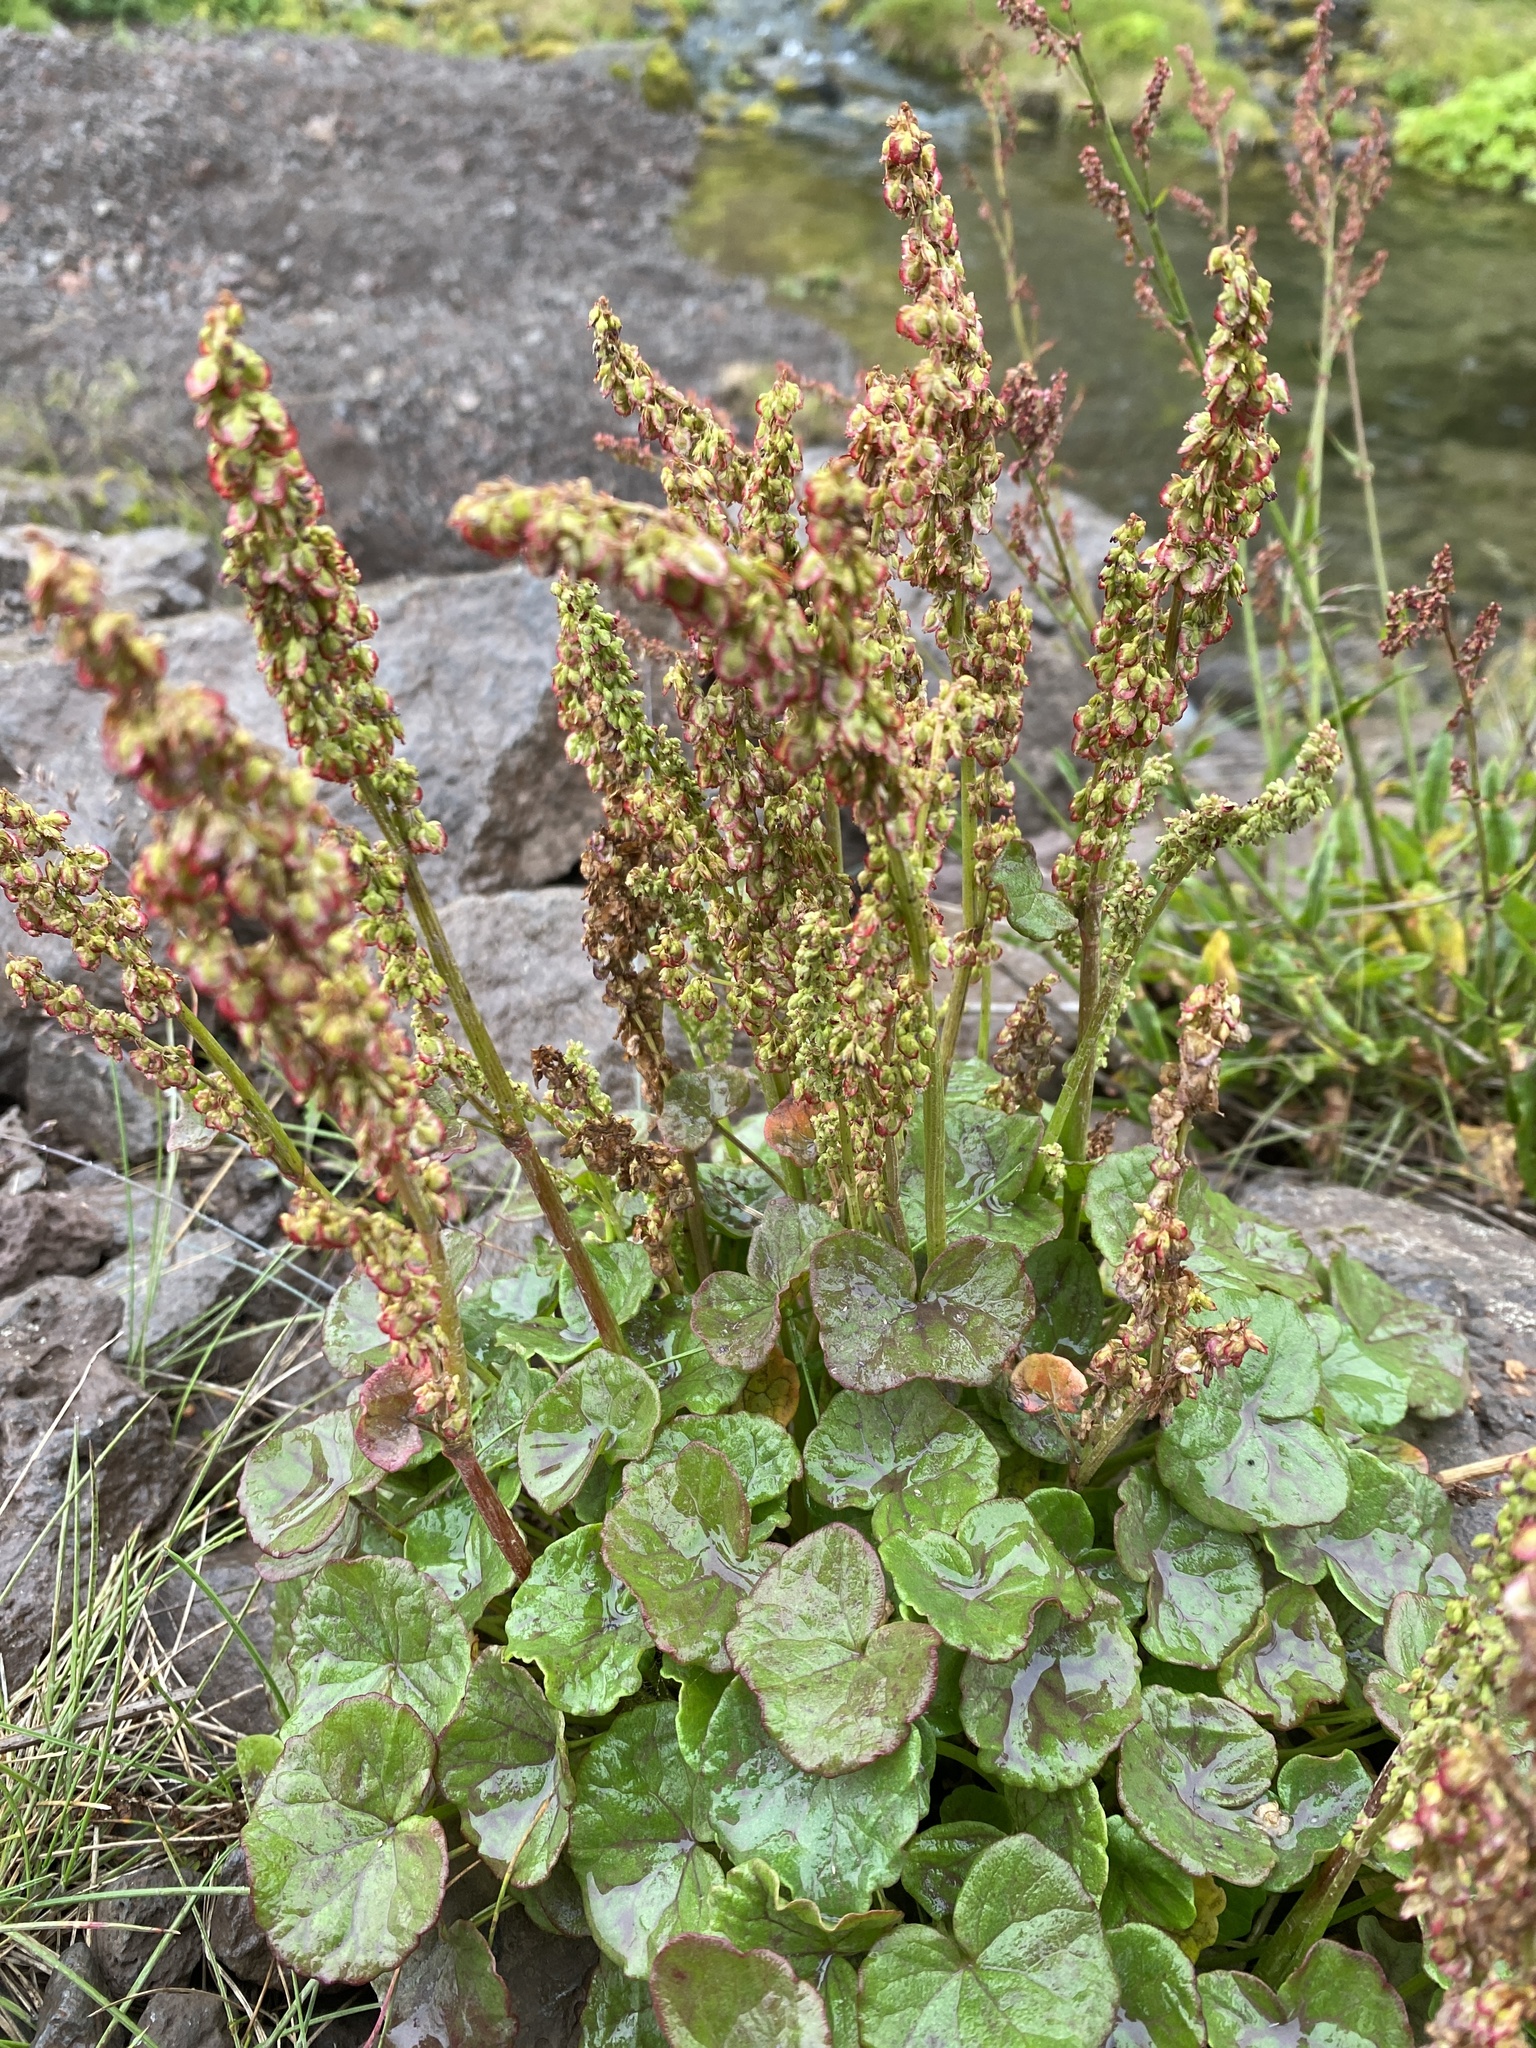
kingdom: Plantae
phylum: Tracheophyta
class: Magnoliopsida
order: Caryophyllales
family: Polygonaceae
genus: Oxyria
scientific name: Oxyria digyna
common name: Alpine mountain-sorrel
